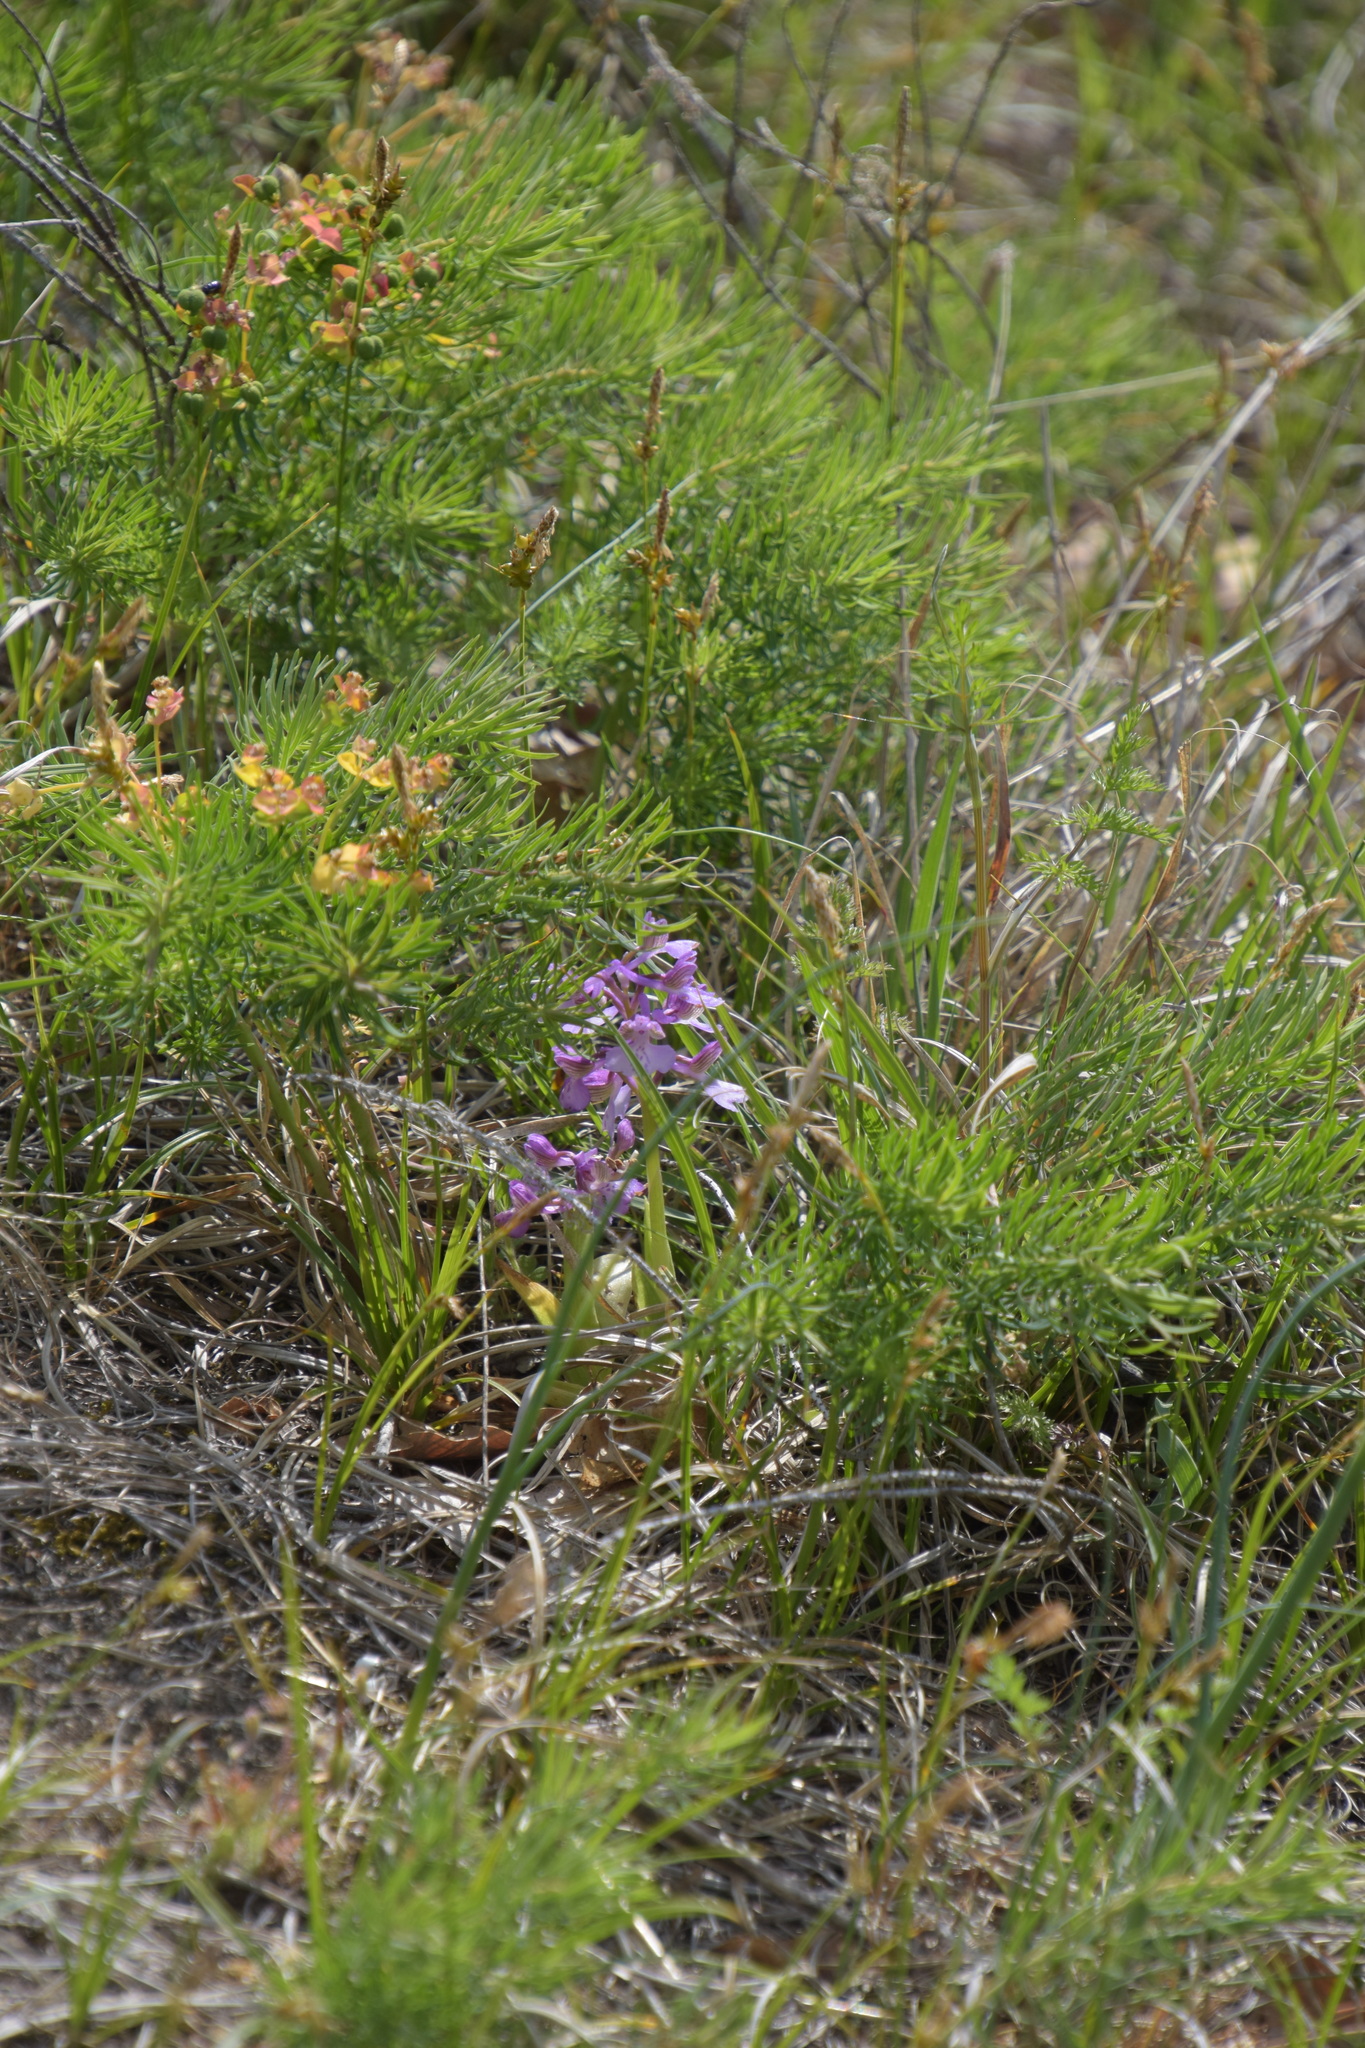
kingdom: Plantae
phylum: Tracheophyta
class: Liliopsida
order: Asparagales
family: Orchidaceae
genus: Anacamptis
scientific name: Anacamptis morio
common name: Green-winged orchid
